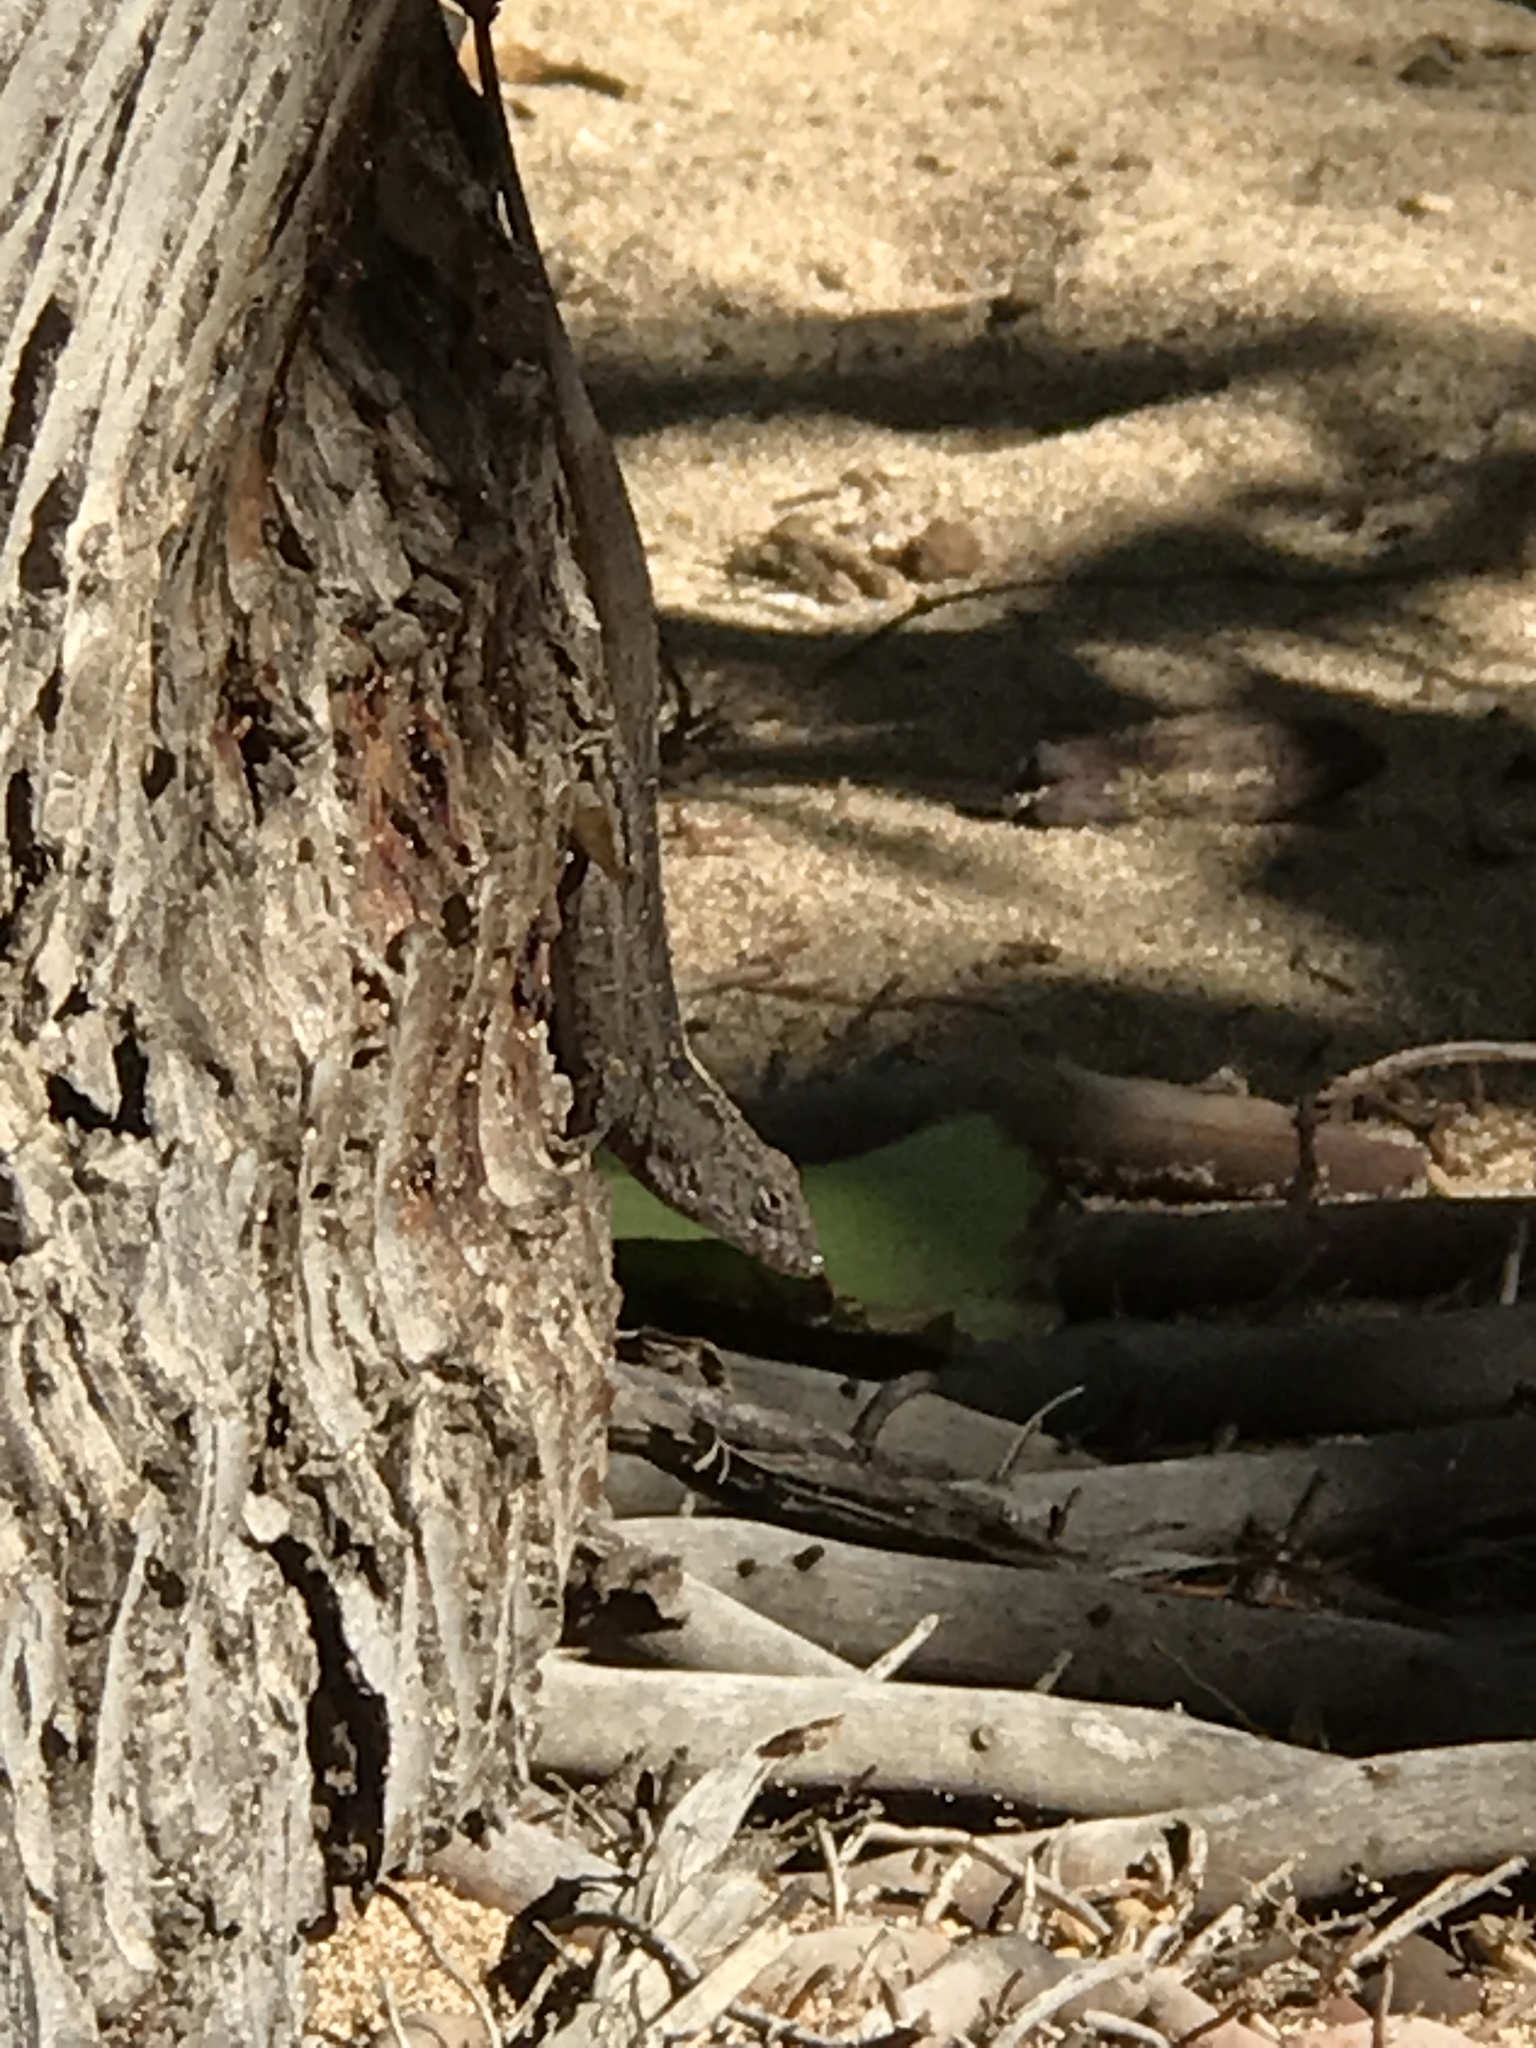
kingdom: Animalia
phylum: Chordata
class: Squamata
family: Dactyloidae
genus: Anolis
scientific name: Anolis sagrei
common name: Brown anole
